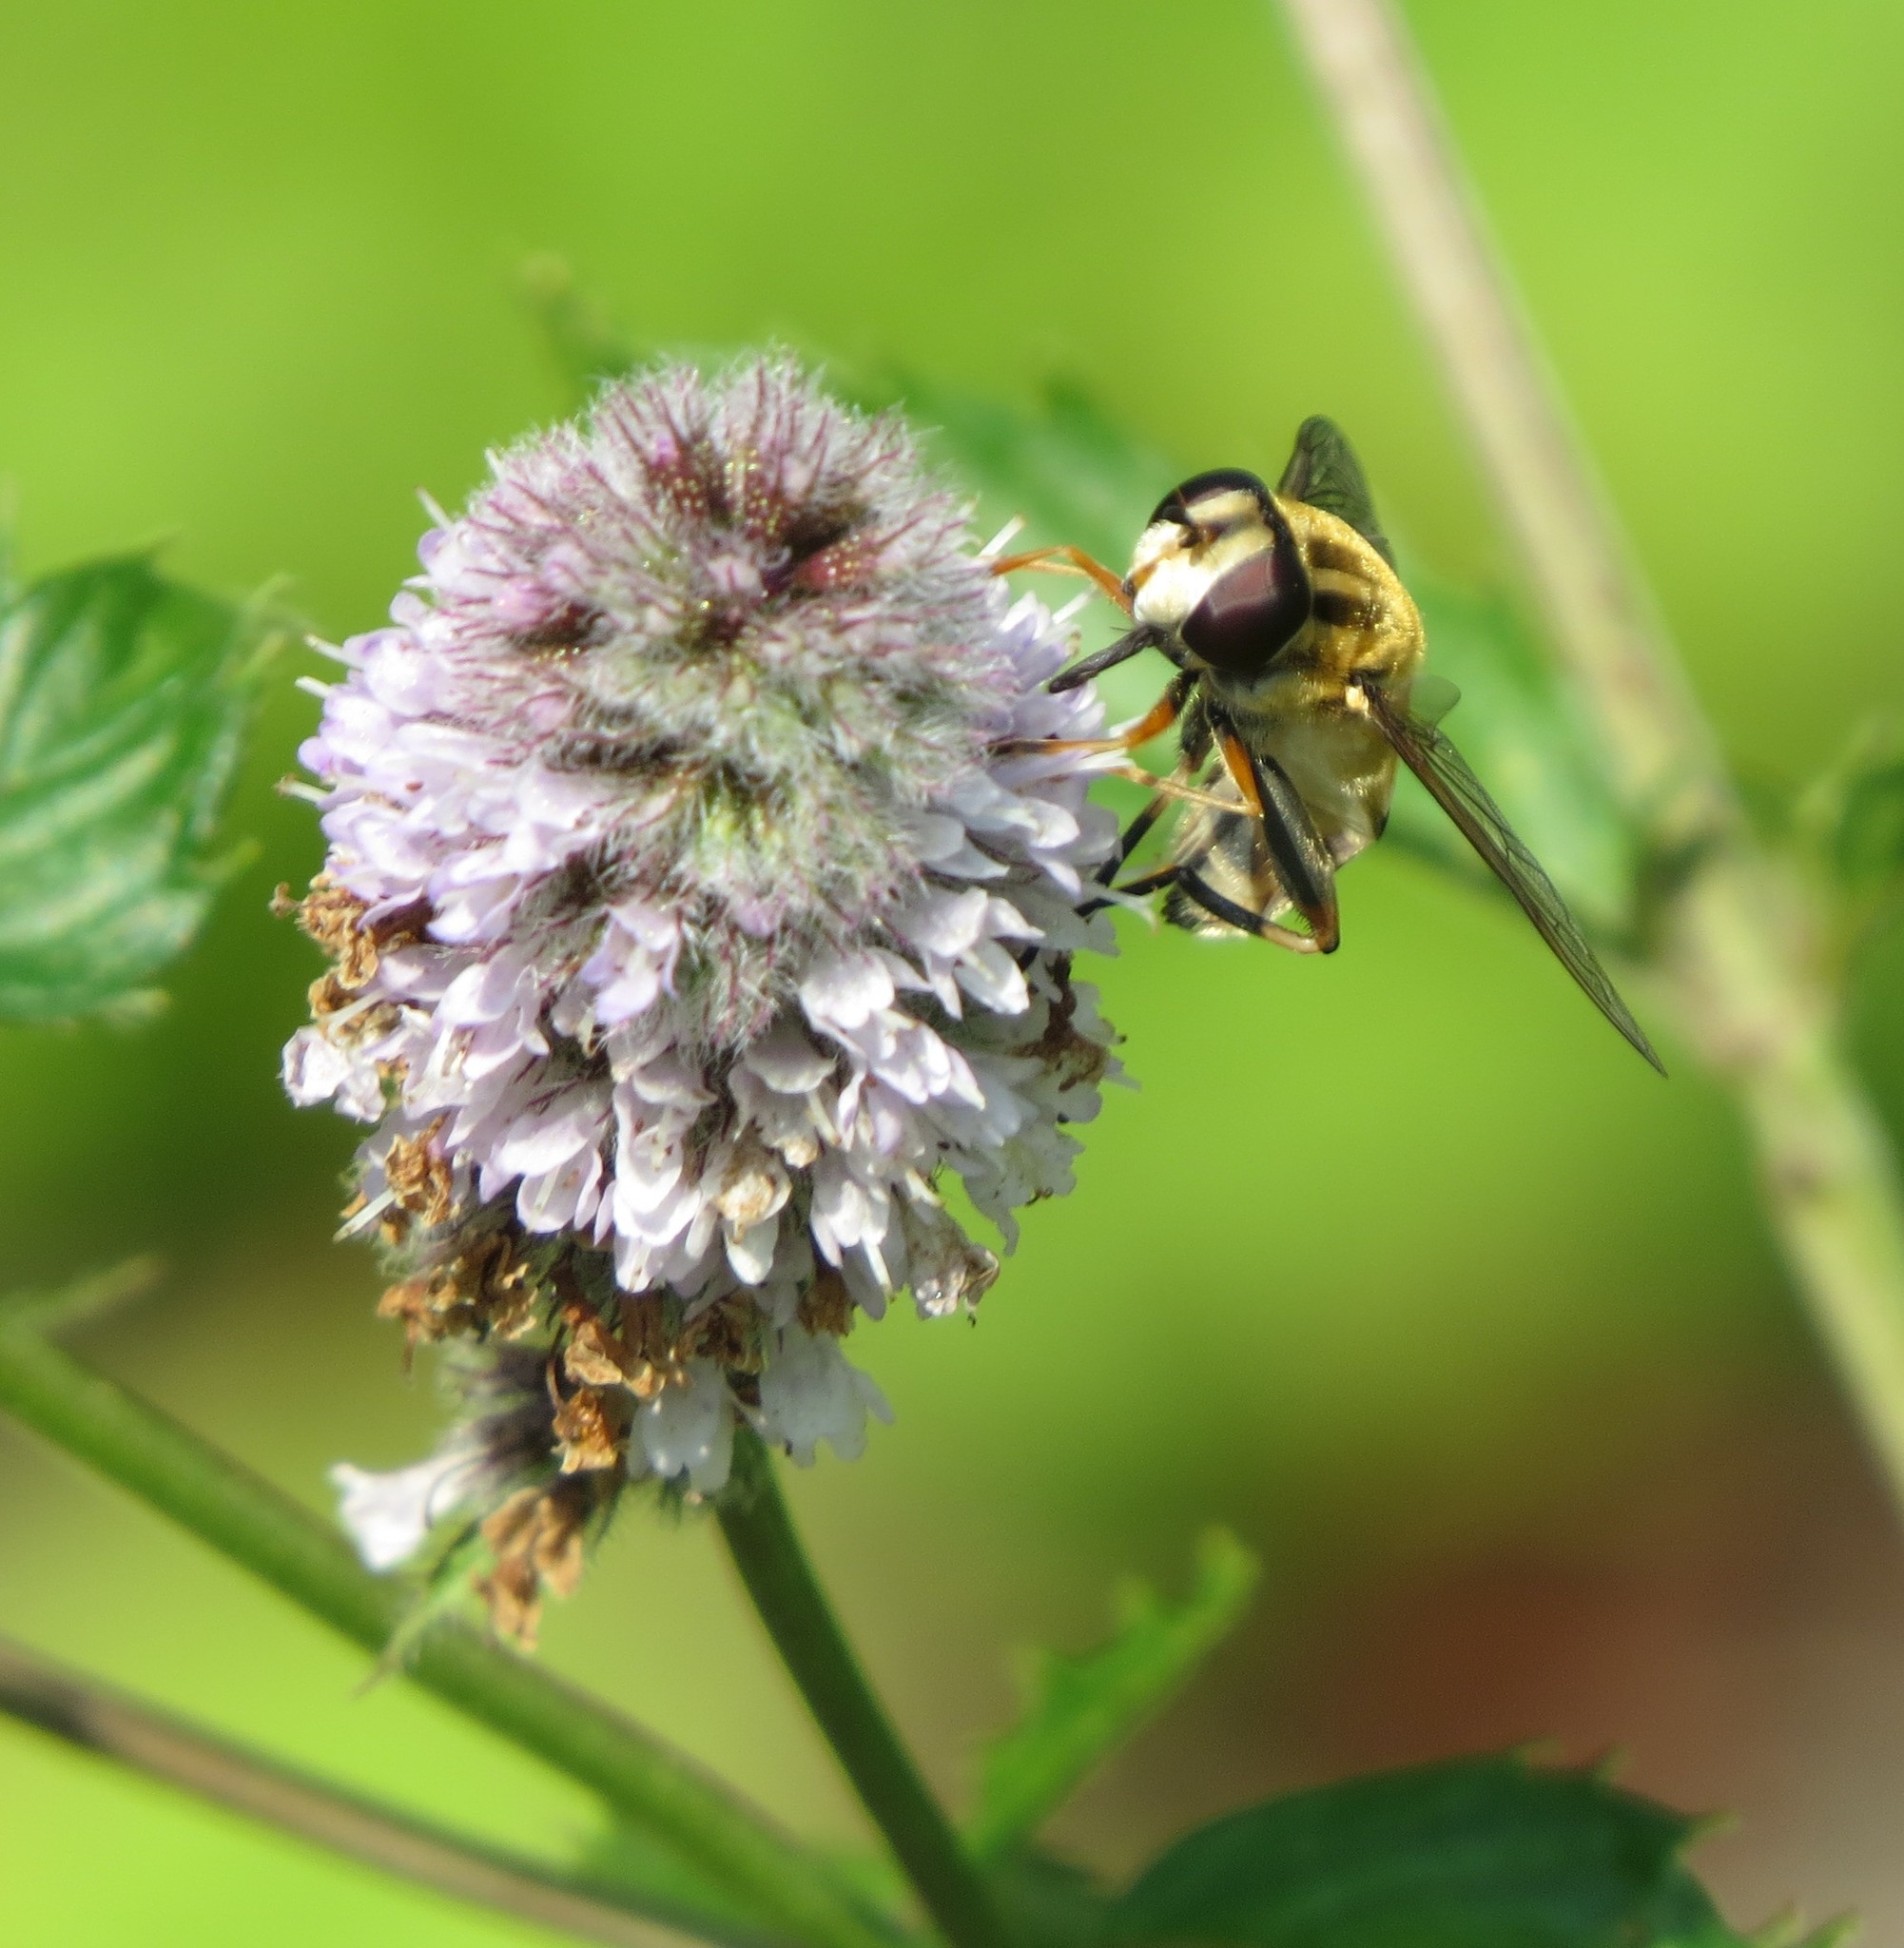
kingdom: Animalia
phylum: Arthropoda
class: Insecta
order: Diptera
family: Syrphidae
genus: Helophilus
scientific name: Helophilus trivittatus
